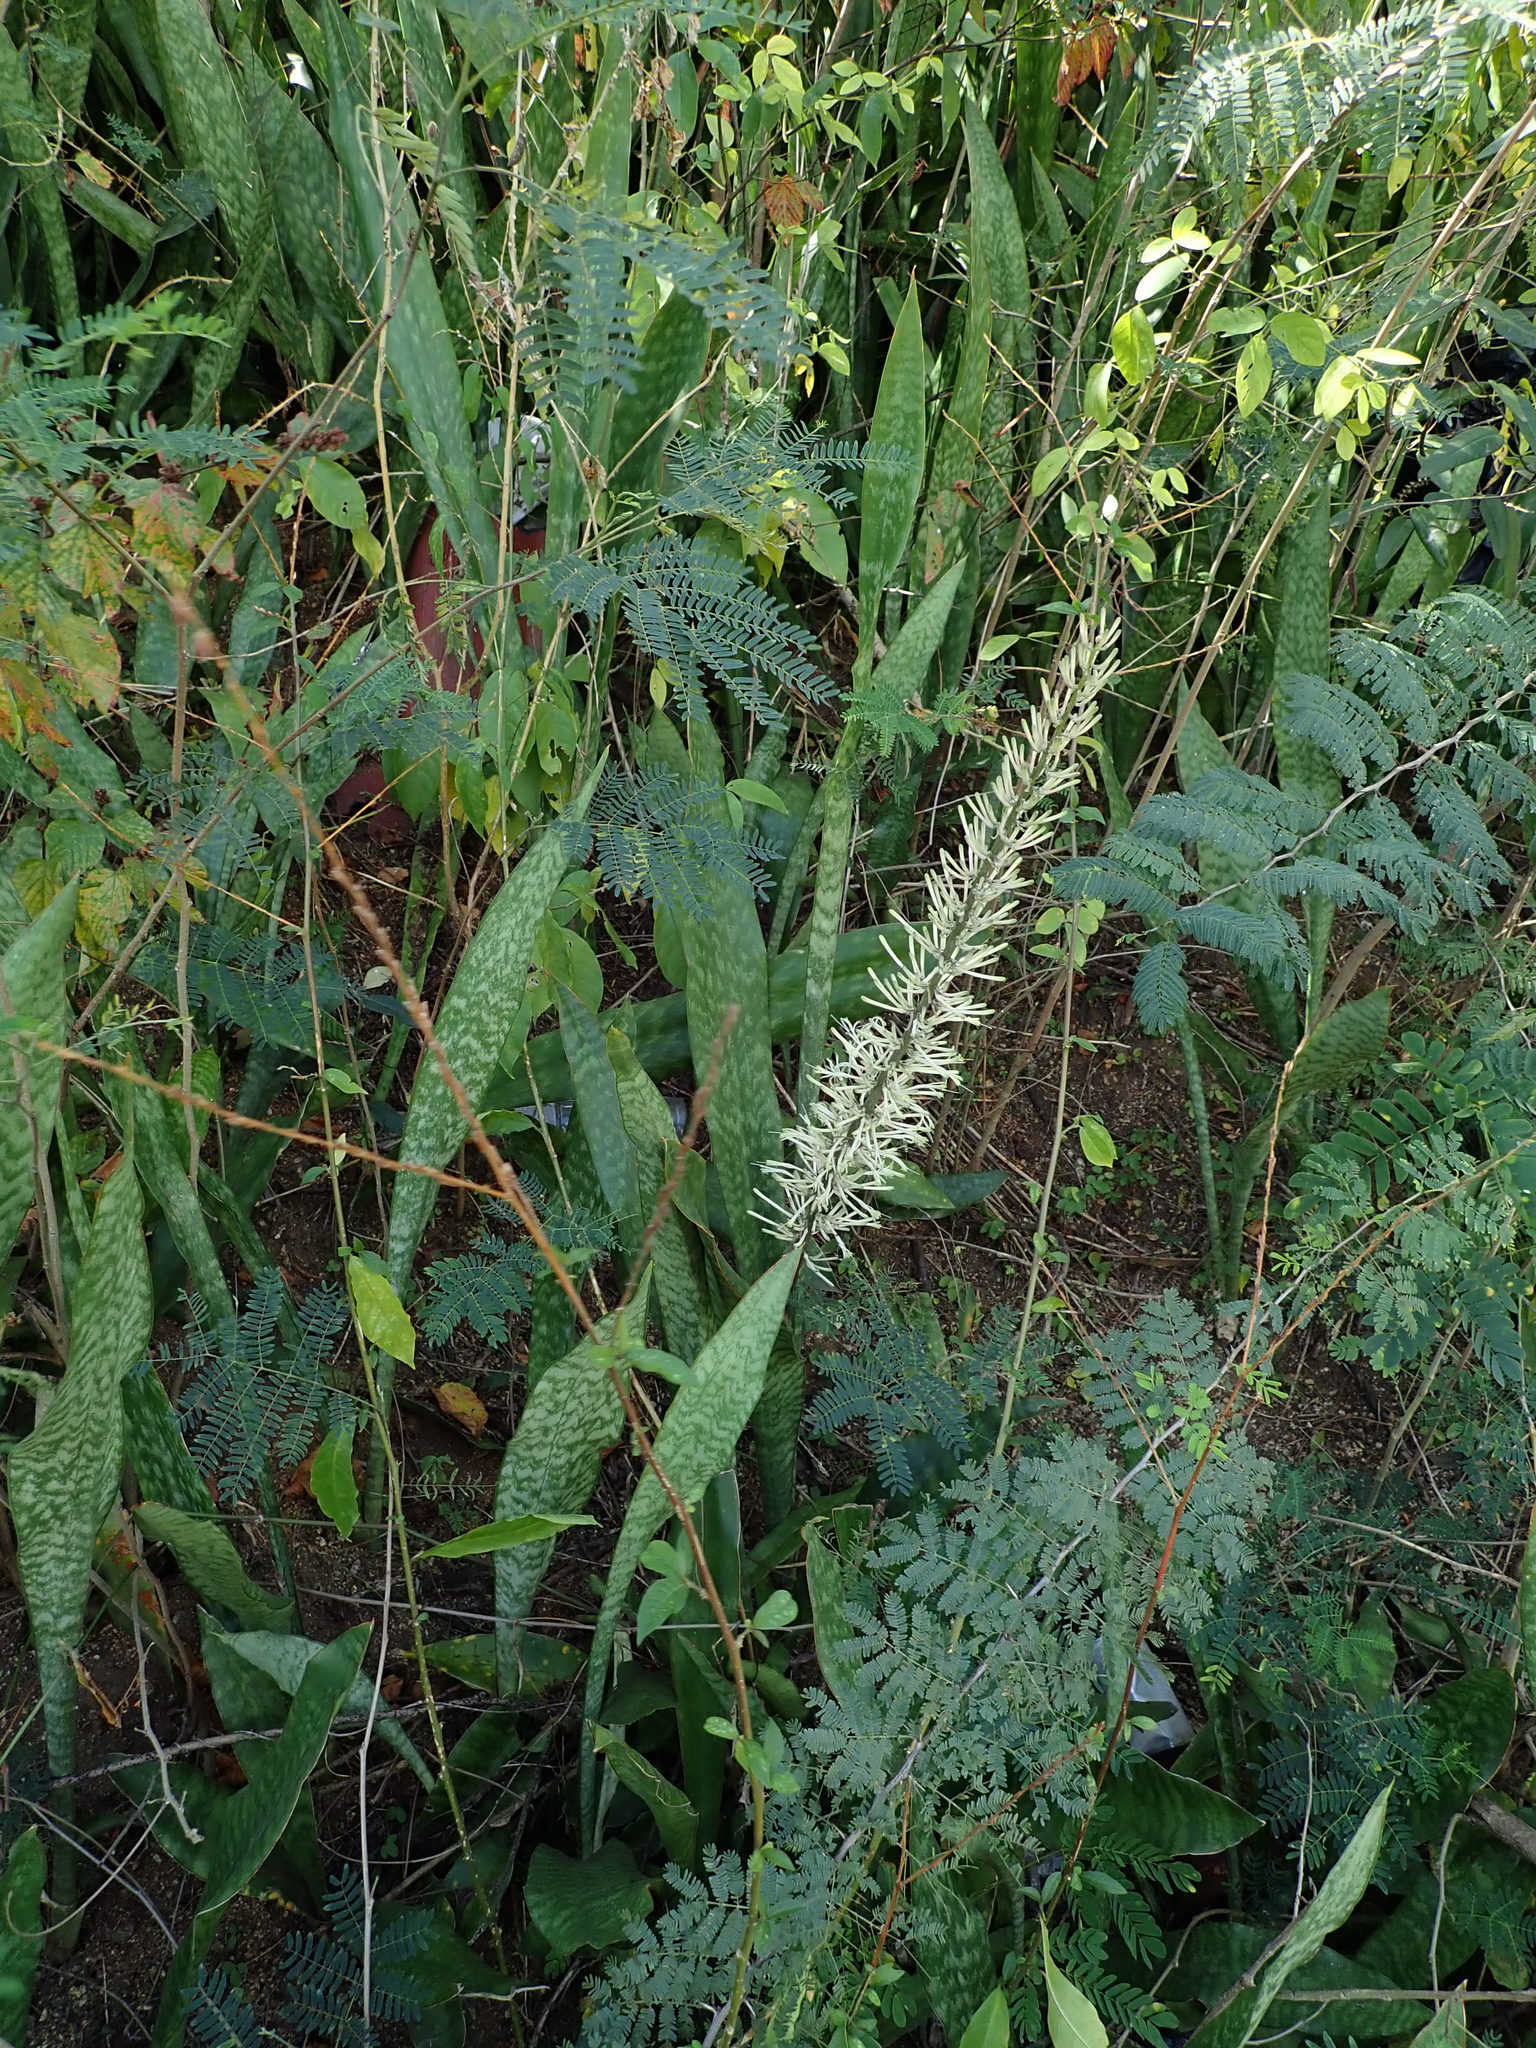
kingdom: Plantae
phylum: Tracheophyta
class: Liliopsida
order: Asparagales
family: Asparagaceae
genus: Dracaena
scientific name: Dracaena hyacinthoides
